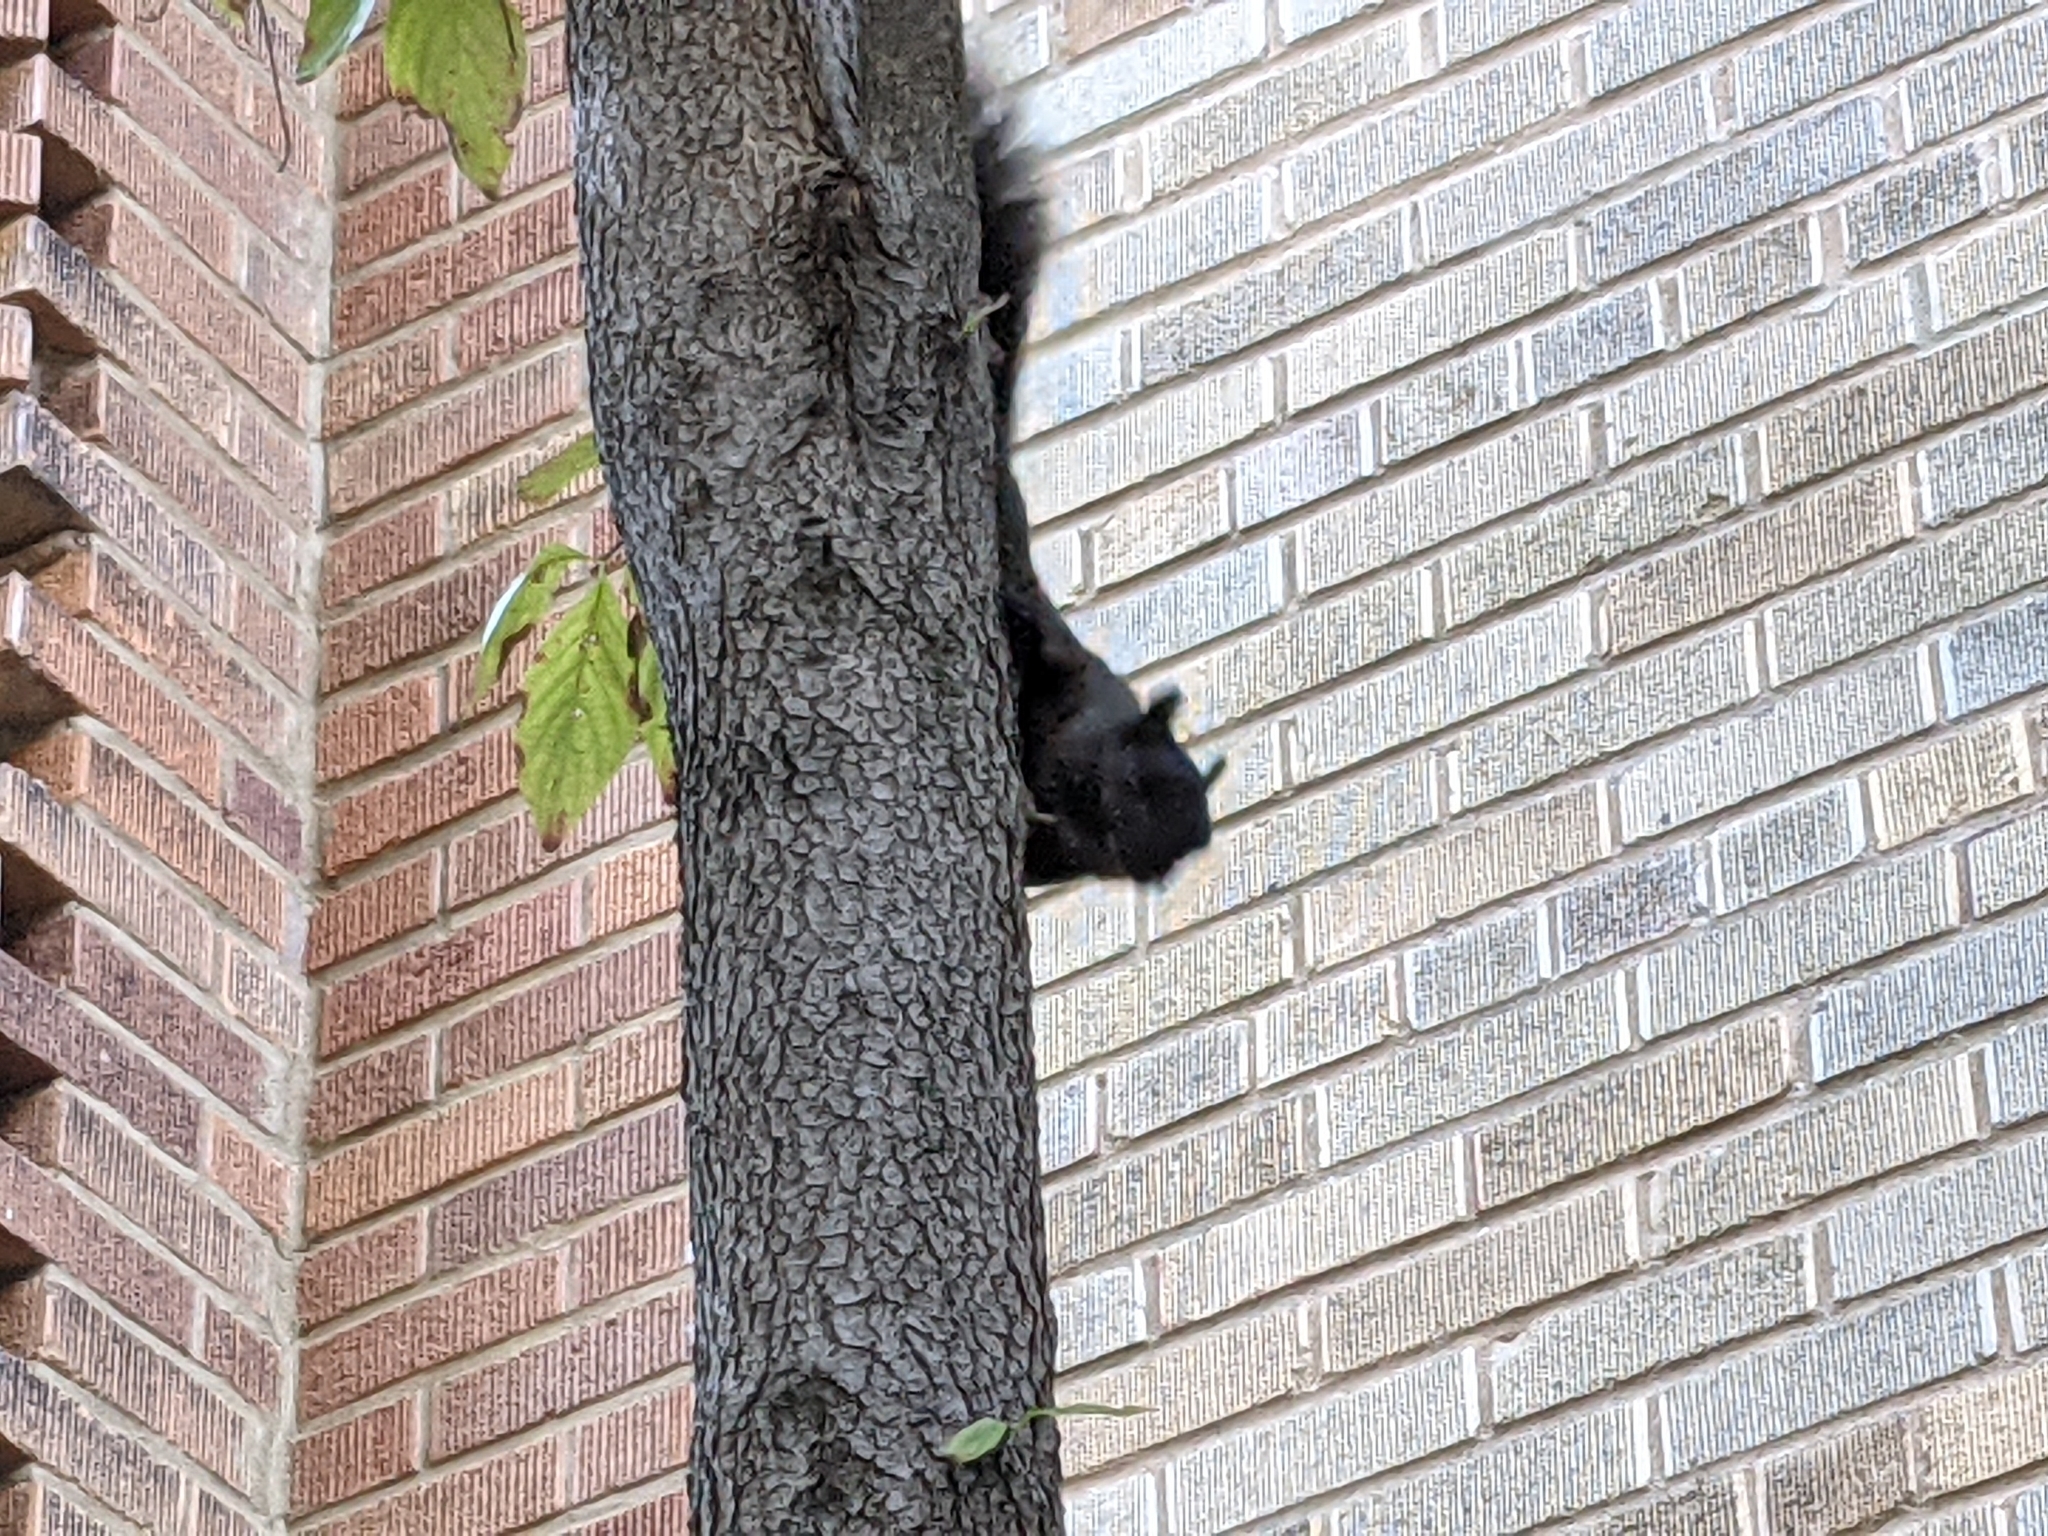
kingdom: Animalia
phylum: Chordata
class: Mammalia
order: Rodentia
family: Sciuridae
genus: Sciurus
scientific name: Sciurus carolinensis
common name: Eastern gray squirrel
